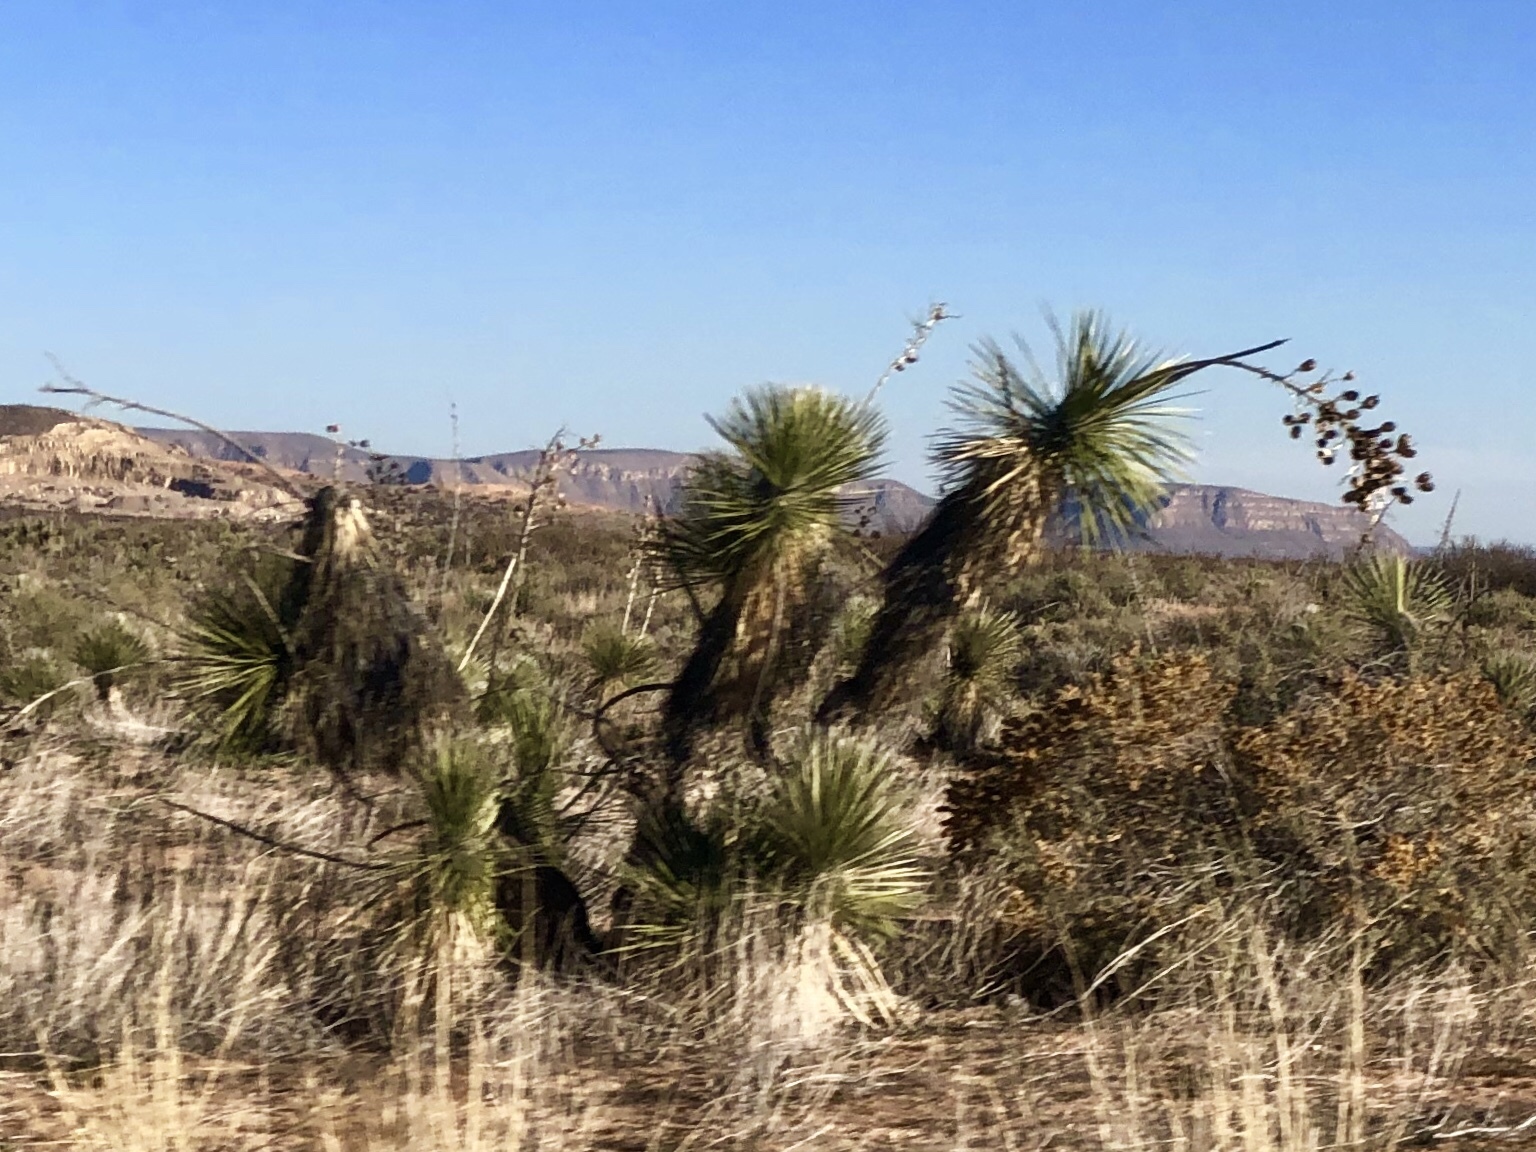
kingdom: Plantae
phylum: Tracheophyta
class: Liliopsida
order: Asparagales
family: Asparagaceae
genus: Yucca
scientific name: Yucca elata
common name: Palmella
